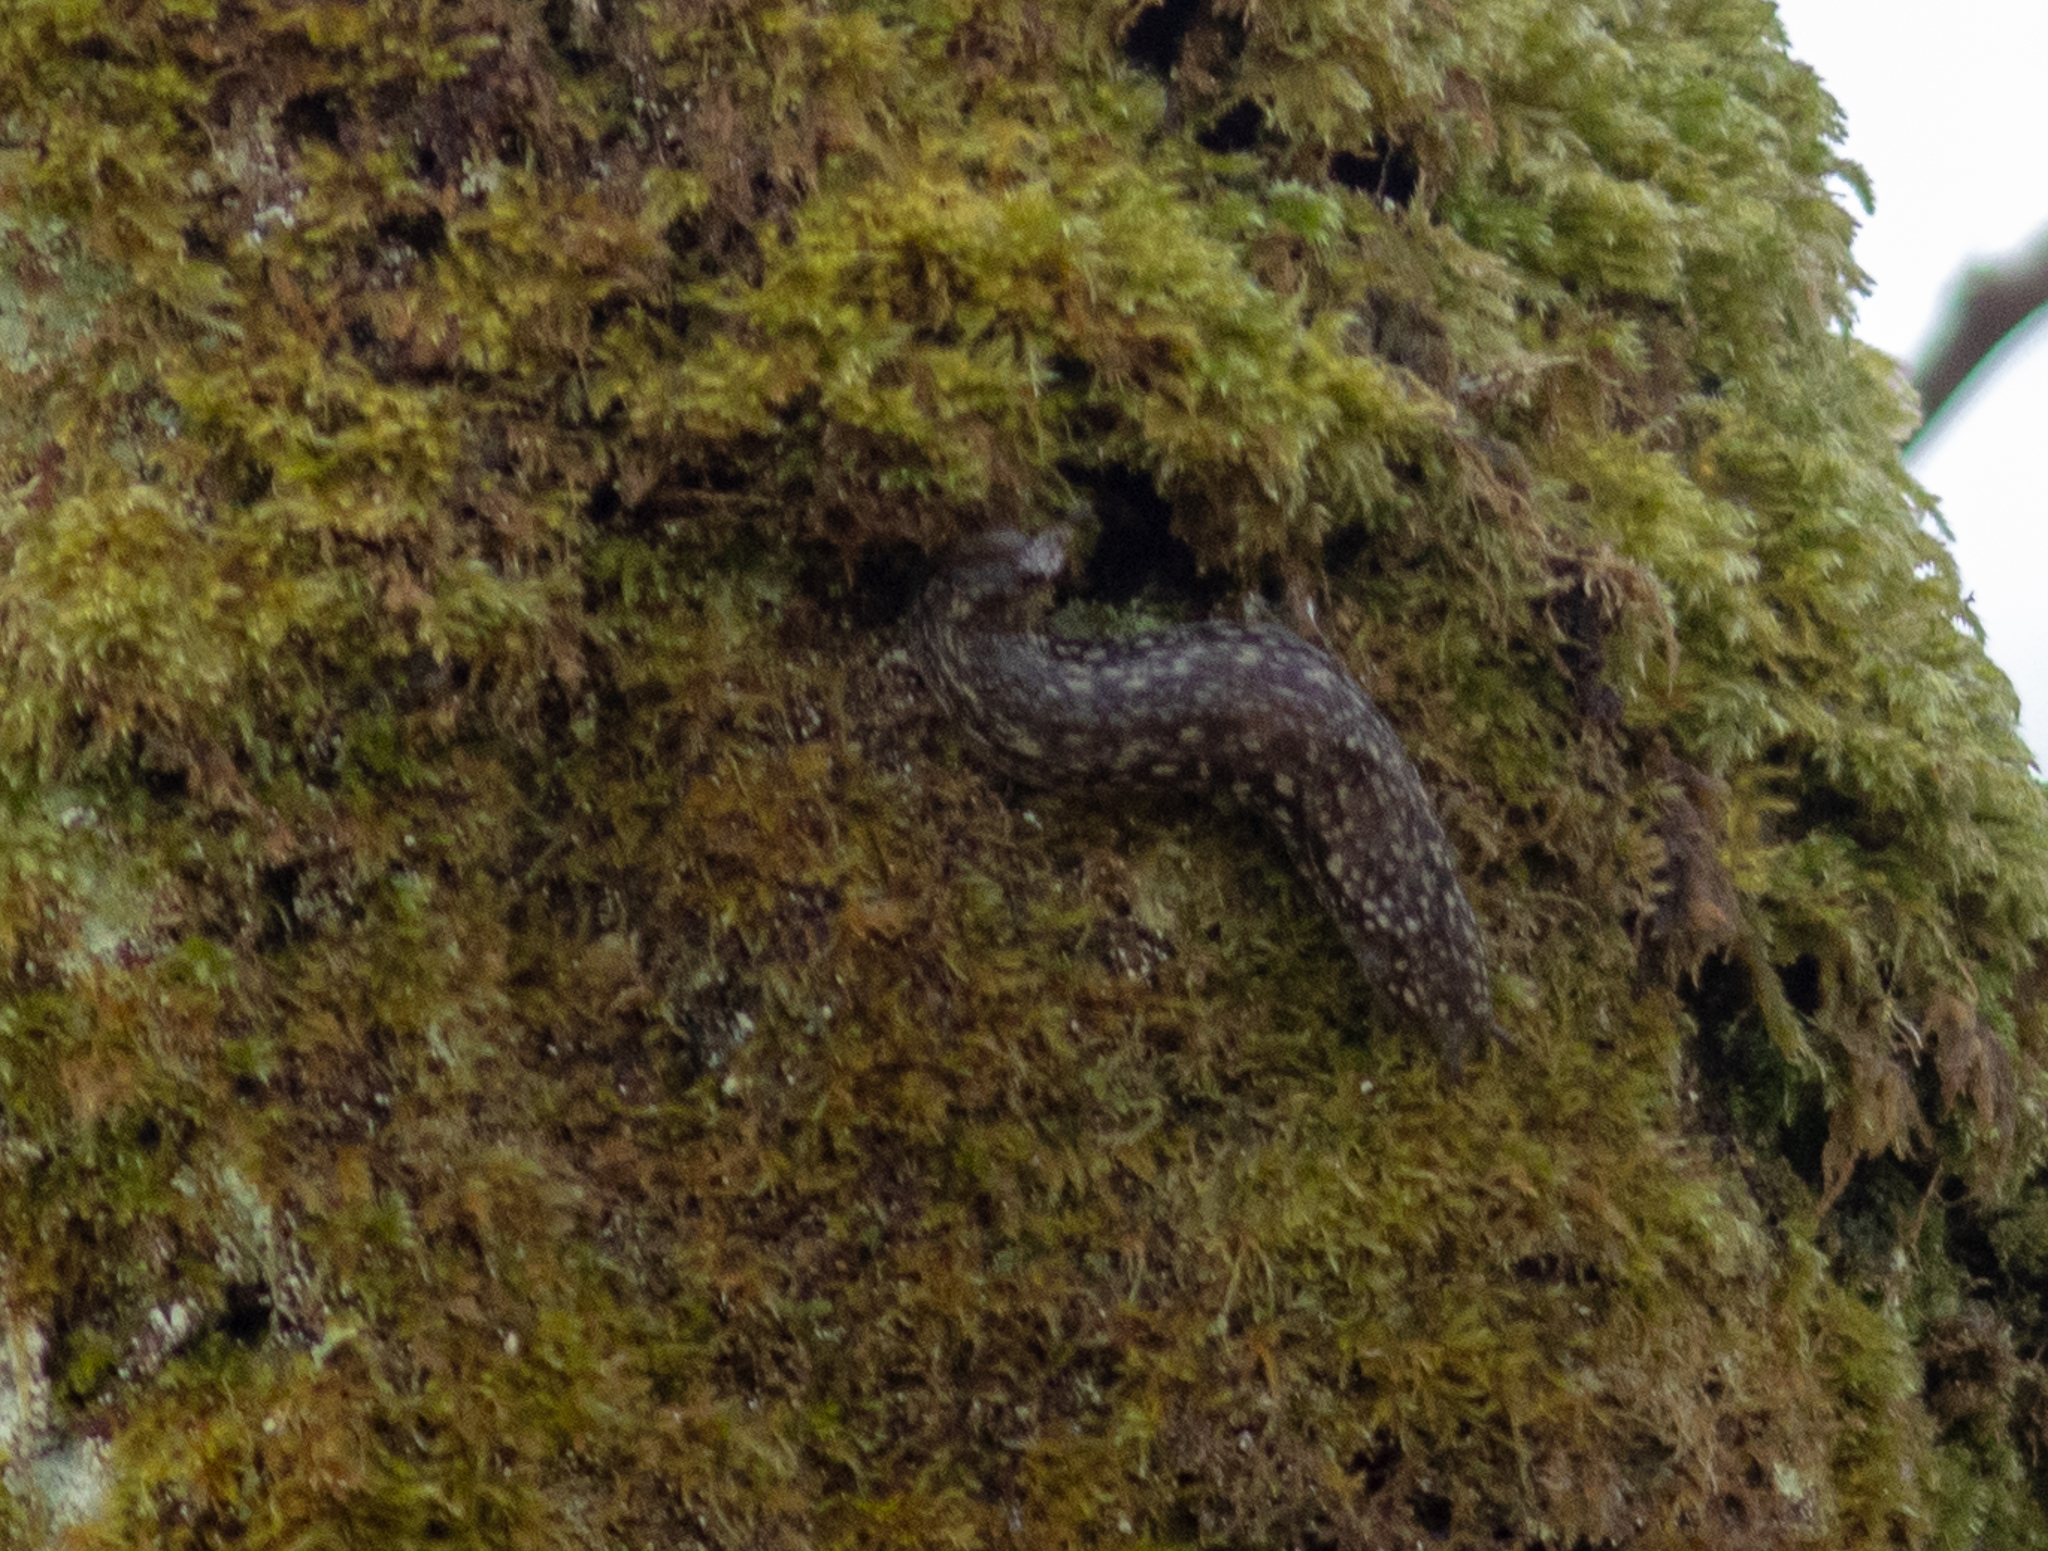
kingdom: Animalia
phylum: Mollusca
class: Gastropoda
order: Stylommatophora
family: Arionidae
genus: Geomalacus
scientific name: Geomalacus maculosus
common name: Kerry slug
